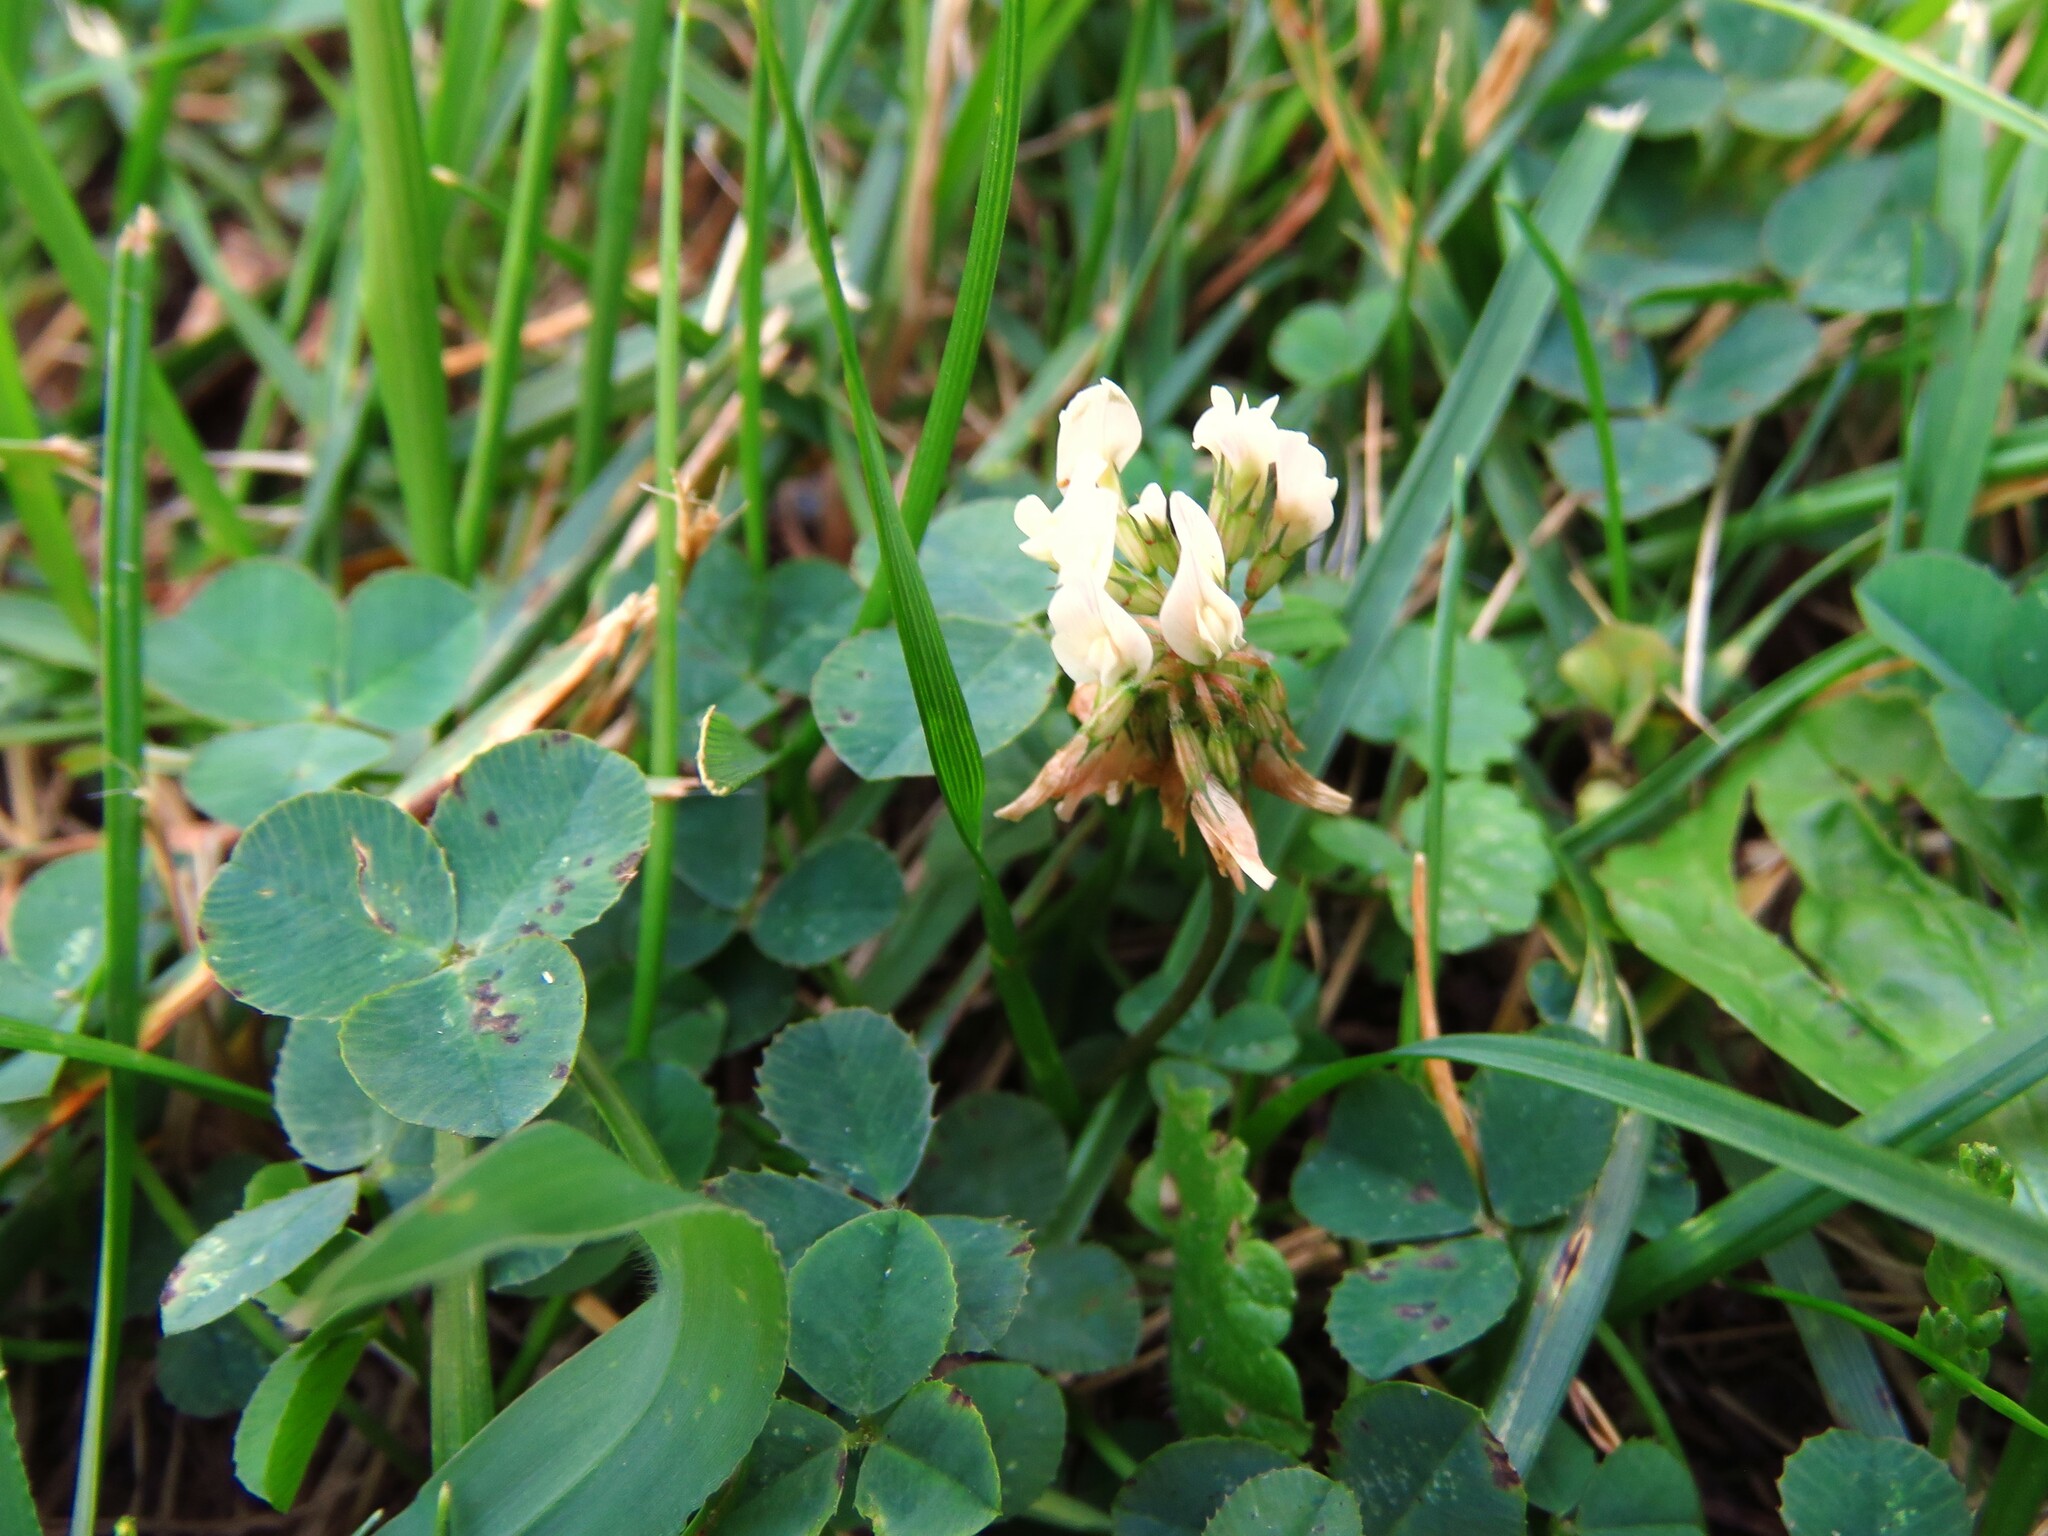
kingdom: Plantae
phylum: Tracheophyta
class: Magnoliopsida
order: Fabales
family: Fabaceae
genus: Trifolium
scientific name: Trifolium repens
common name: White clover
